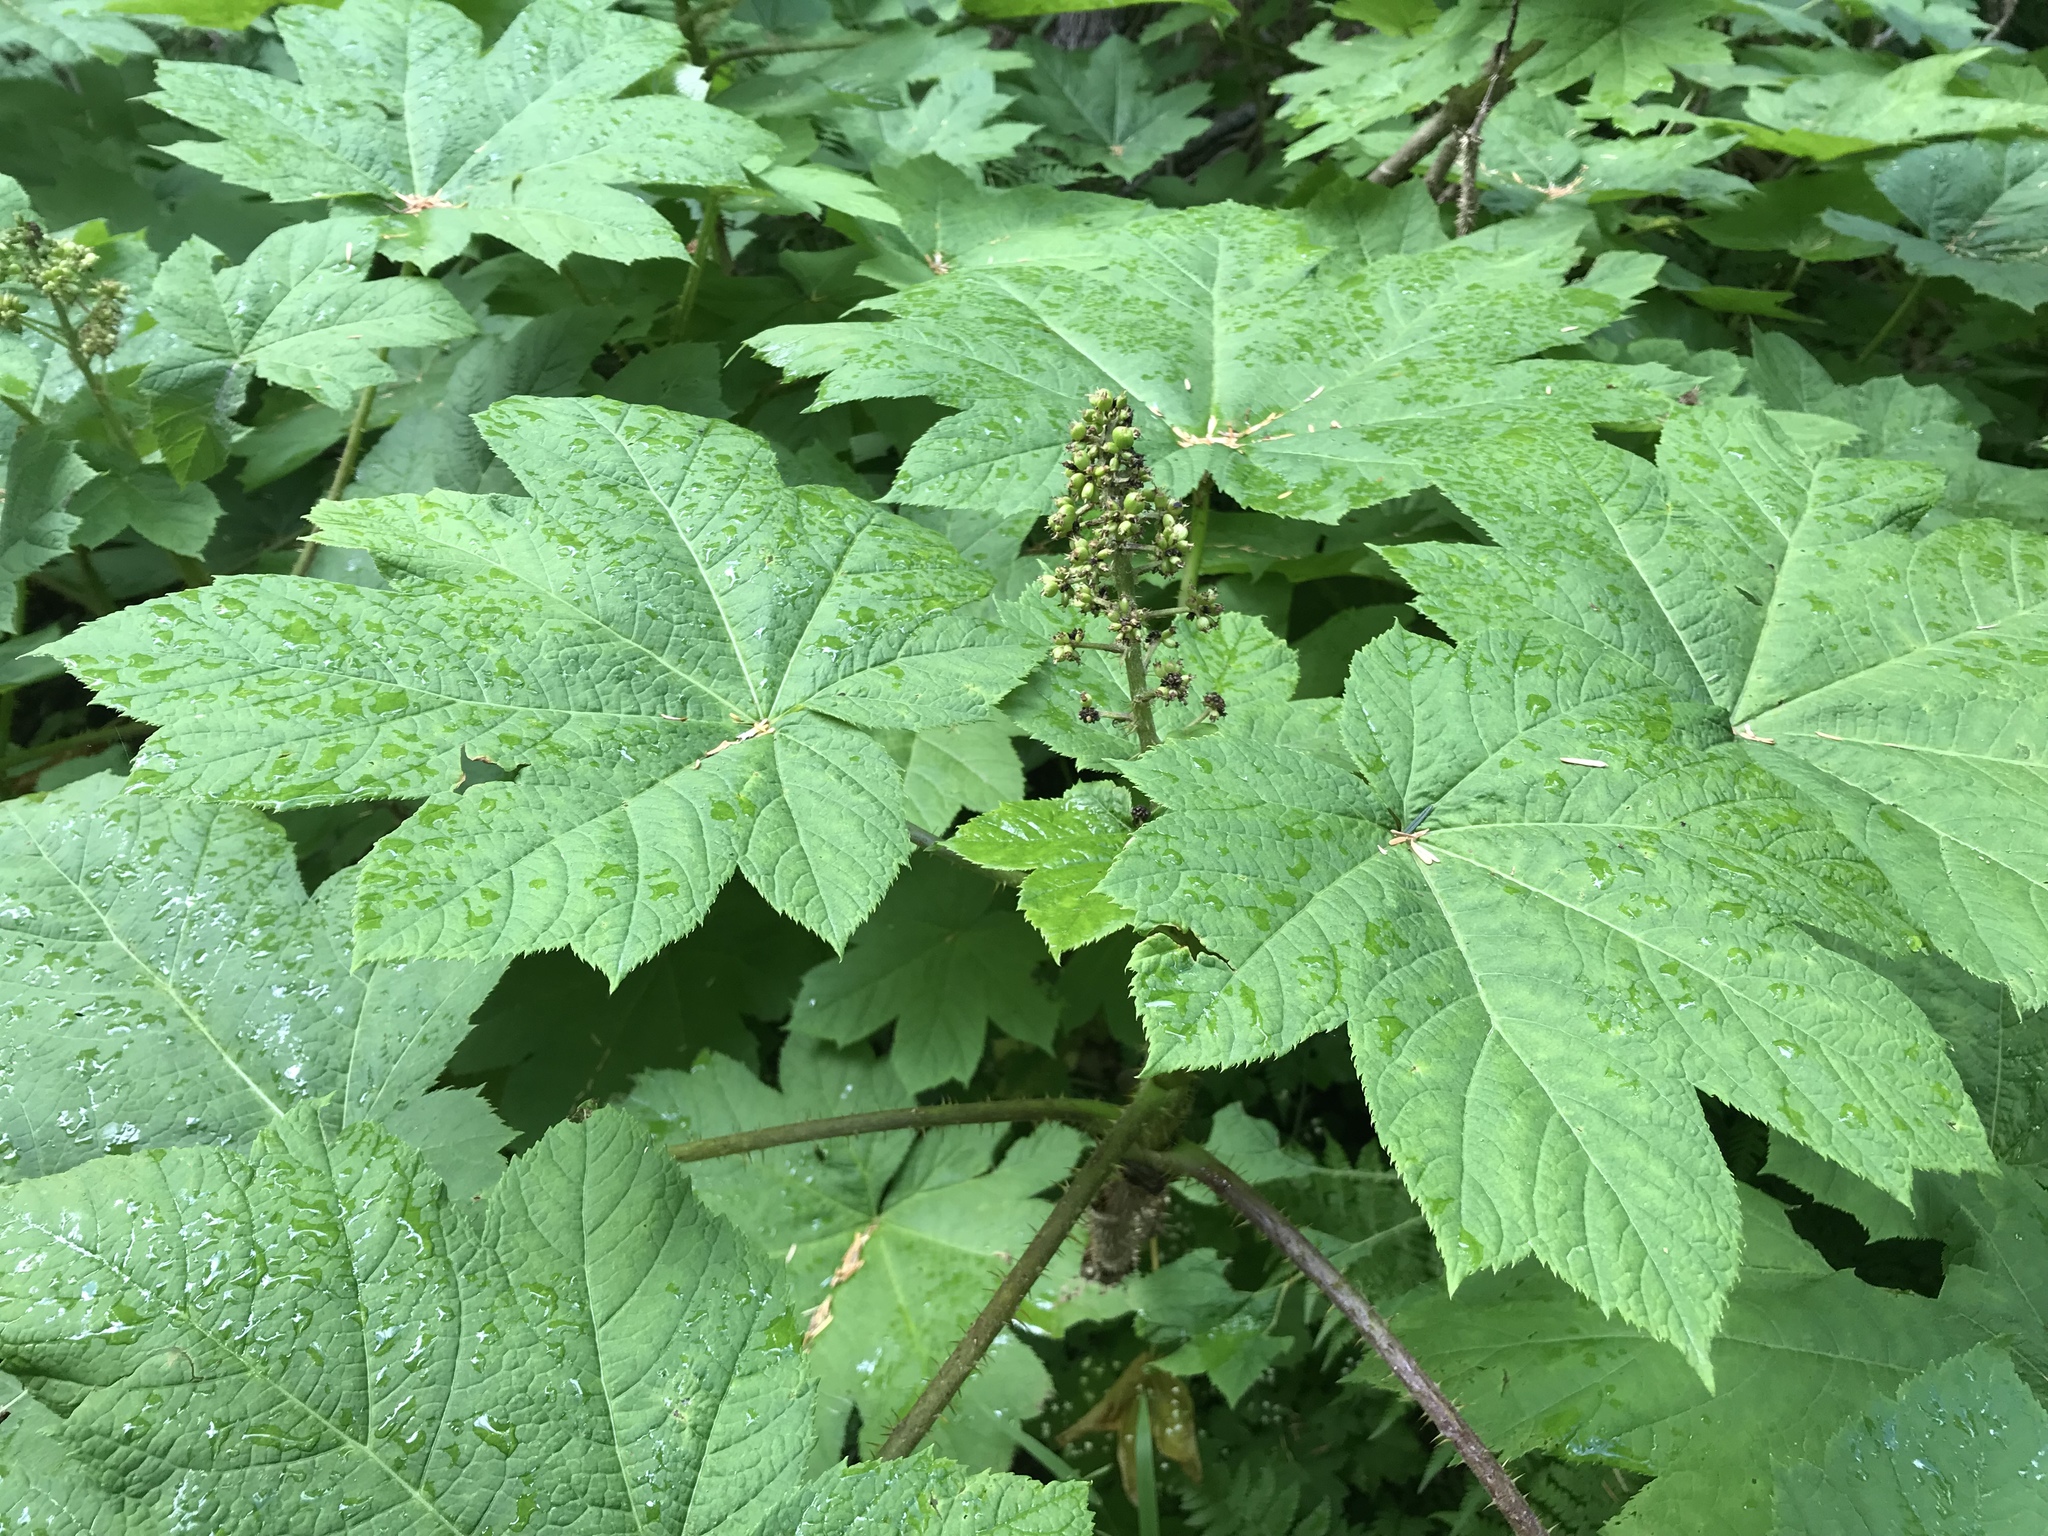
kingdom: Plantae
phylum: Tracheophyta
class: Magnoliopsida
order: Apiales
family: Araliaceae
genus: Oplopanax
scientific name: Oplopanax horridus
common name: Devil's walking-stick
